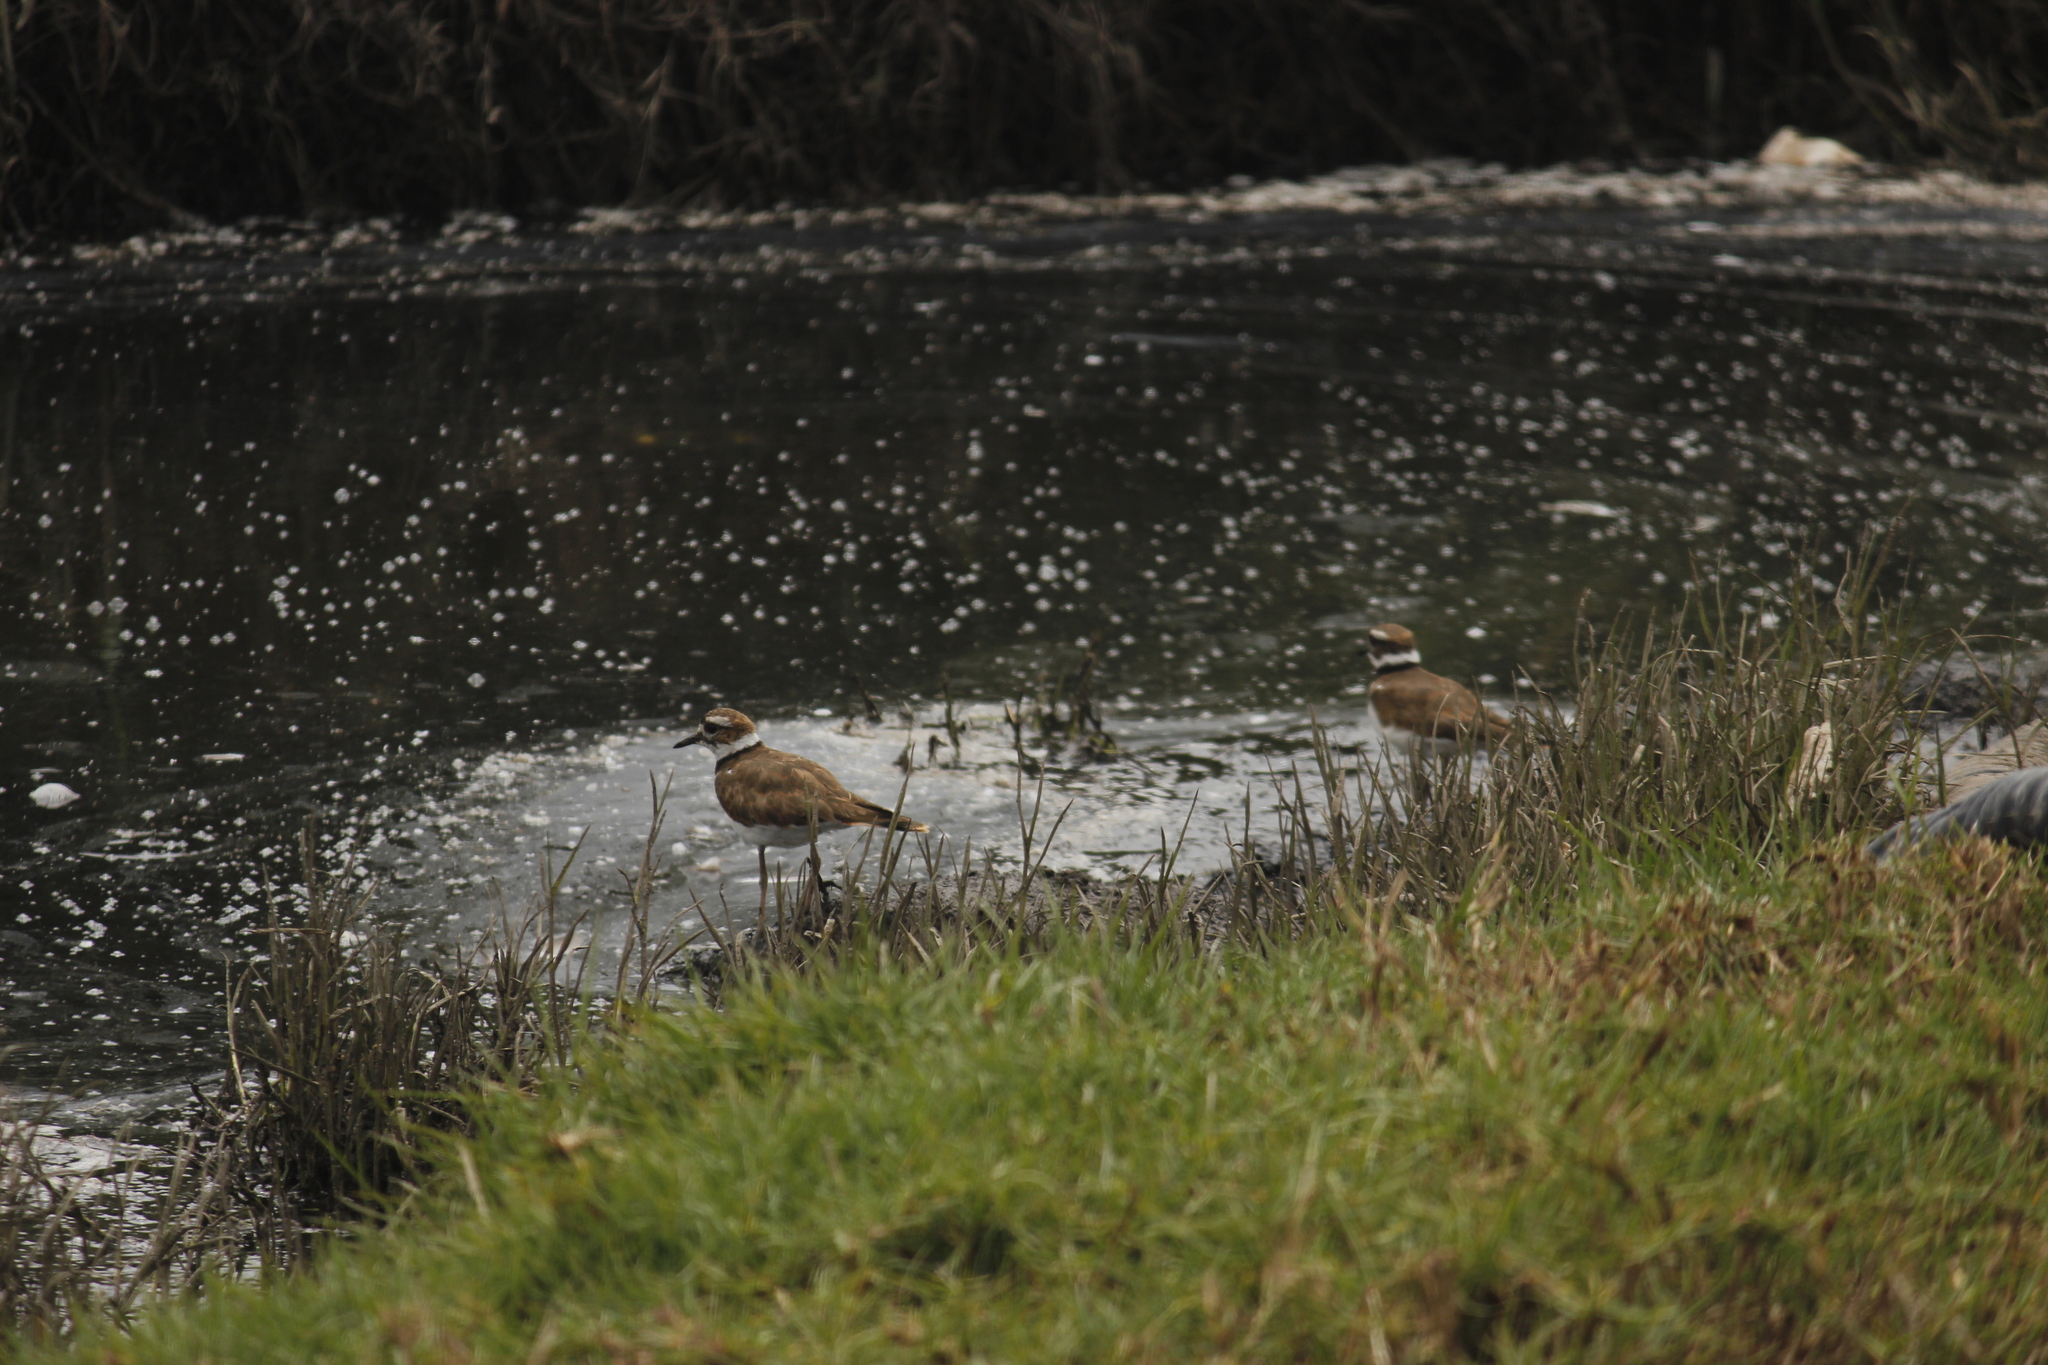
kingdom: Animalia
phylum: Chordata
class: Aves
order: Charadriiformes
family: Charadriidae
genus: Charadrius
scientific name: Charadrius vociferus
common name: Killdeer
